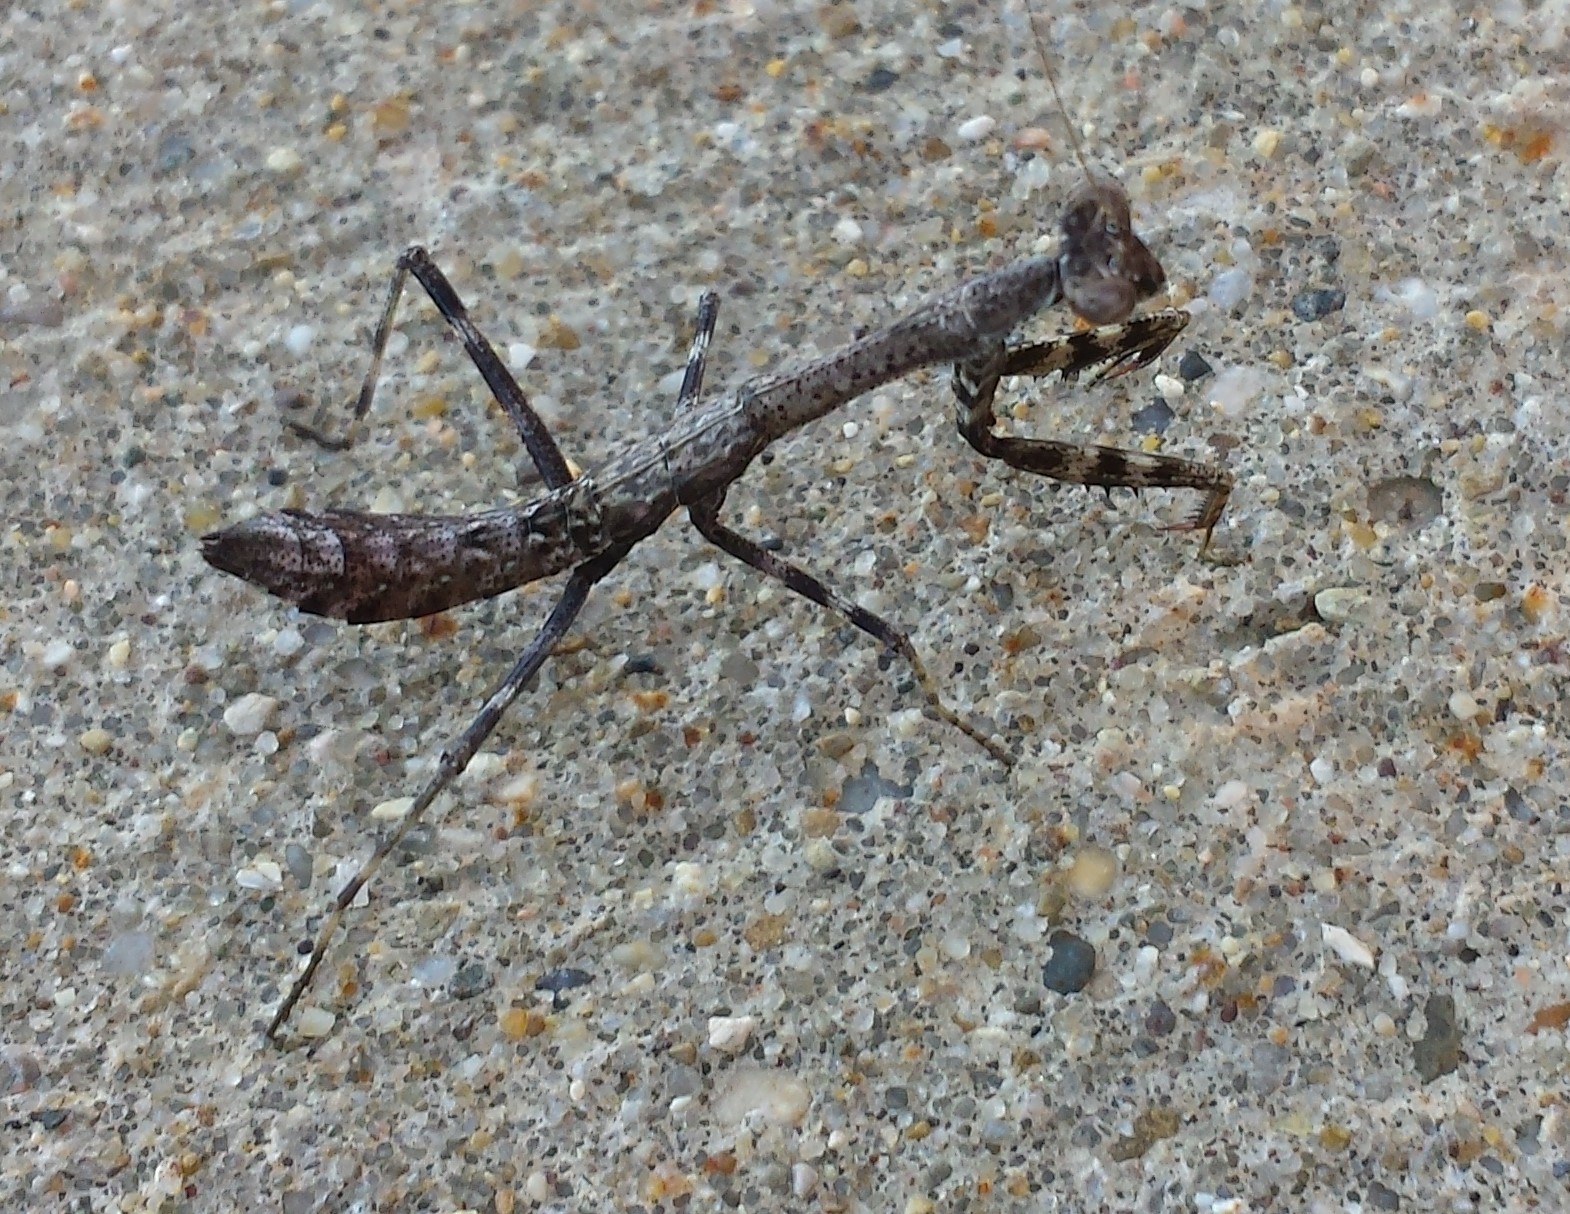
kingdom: Animalia
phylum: Arthropoda
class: Insecta
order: Mantodea
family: Mantidae
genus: Stagmomantis
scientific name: Stagmomantis carolina
